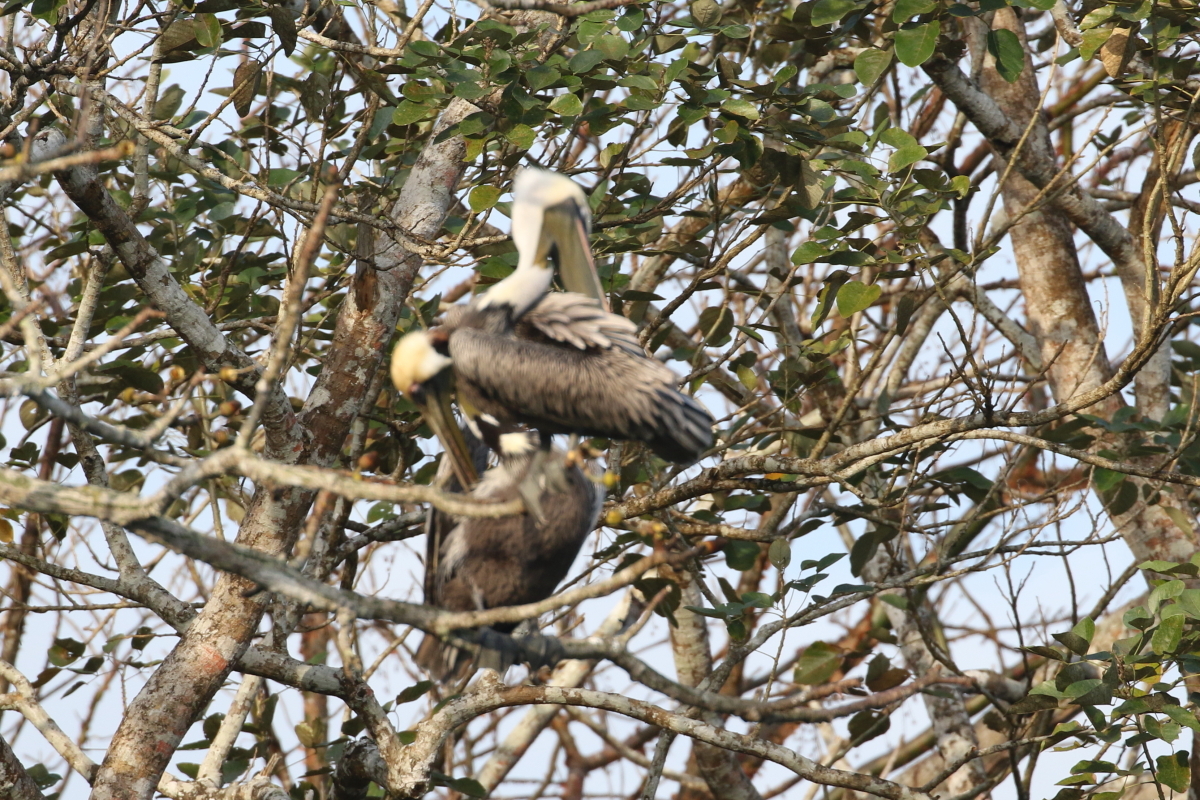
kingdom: Animalia
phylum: Chordata
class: Aves
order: Pelecaniformes
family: Pelecanidae
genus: Pelecanus
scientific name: Pelecanus occidentalis
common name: Brown pelican
